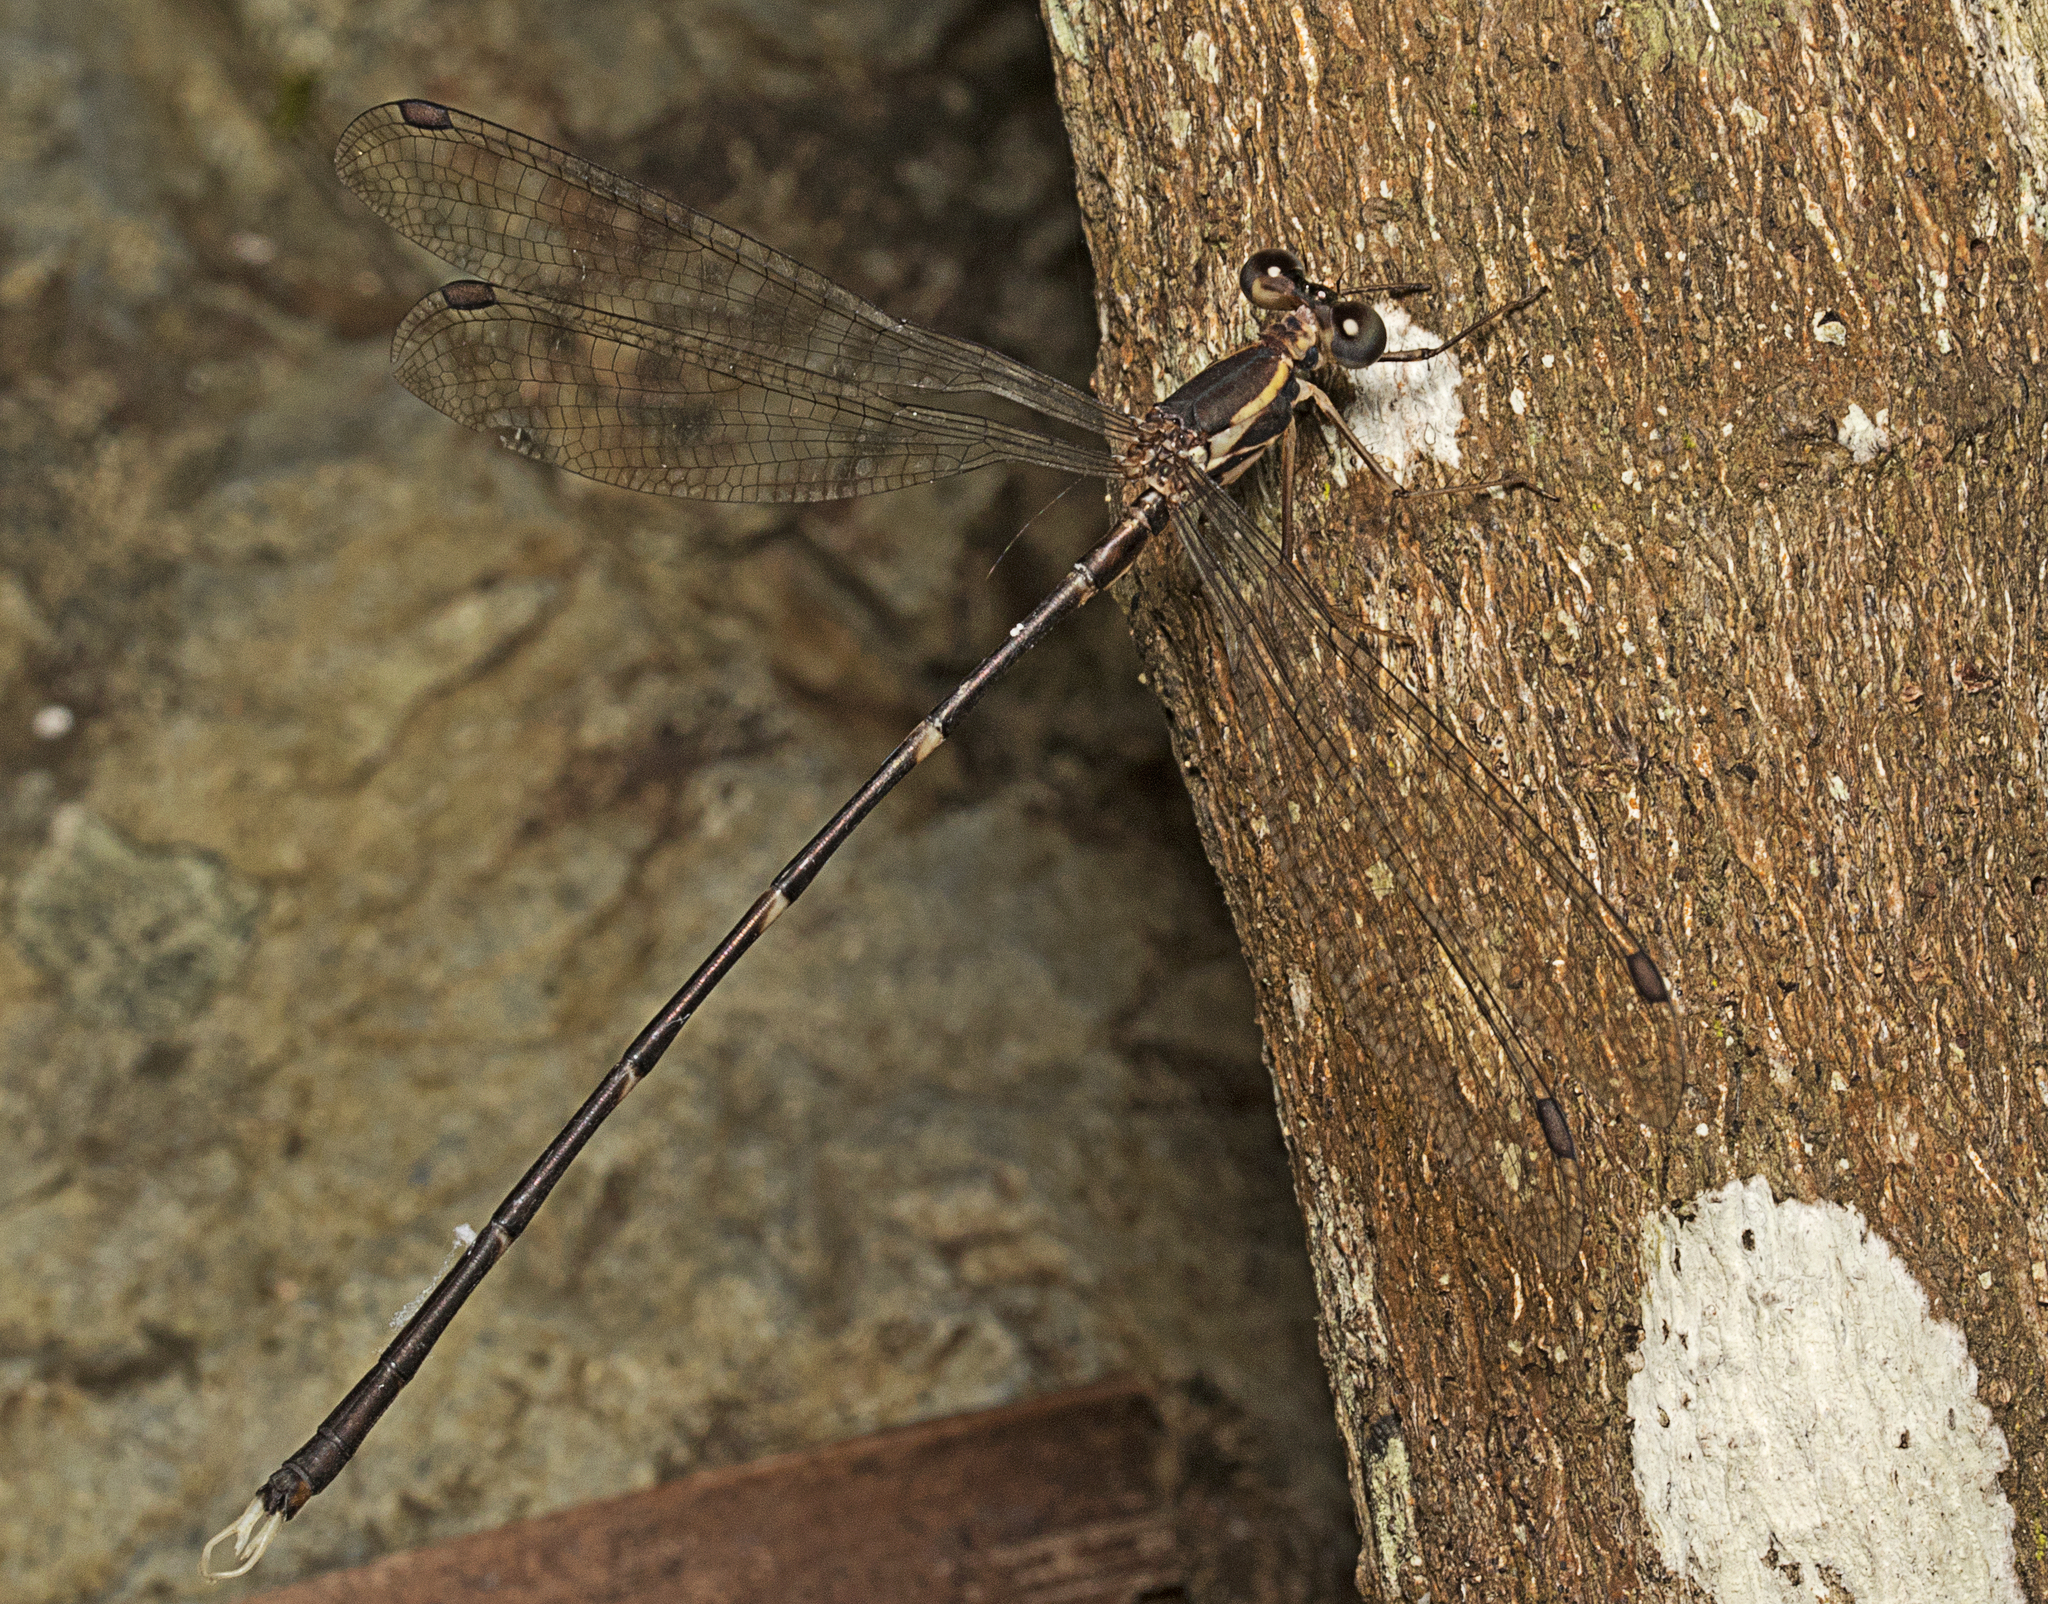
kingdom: Animalia
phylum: Arthropoda
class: Insecta
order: Odonata
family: Synlestidae
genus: Episynlestes
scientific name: Episynlestes albicaudus
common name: Southern whitetip
